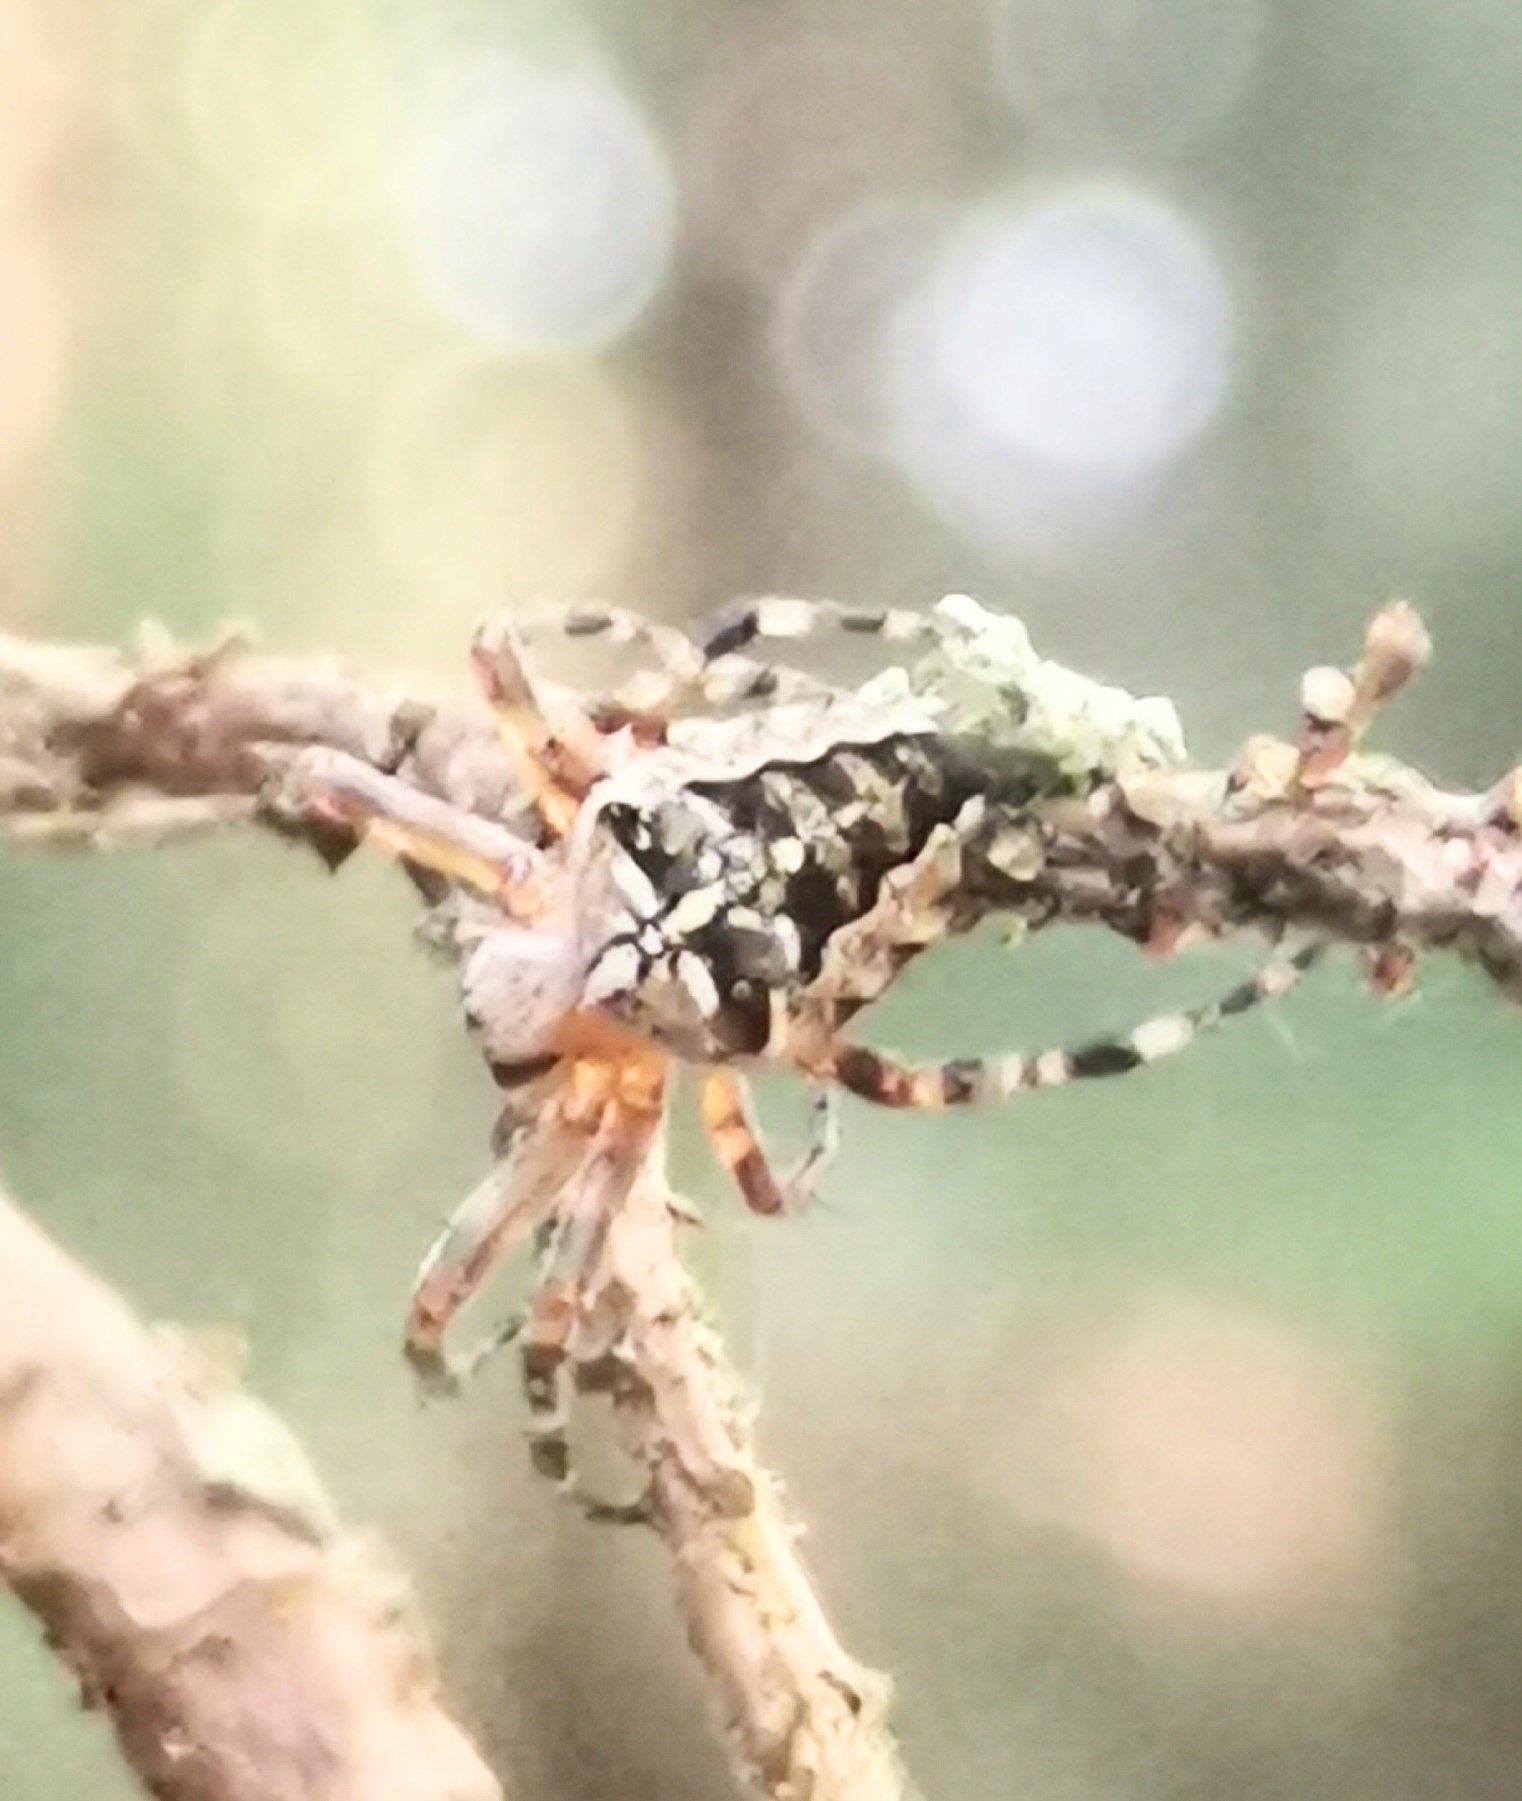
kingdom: Animalia
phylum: Arthropoda
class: Arachnida
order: Araneae
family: Araneidae
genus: Araneus
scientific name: Araneus diadematus
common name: Cross orbweaver
